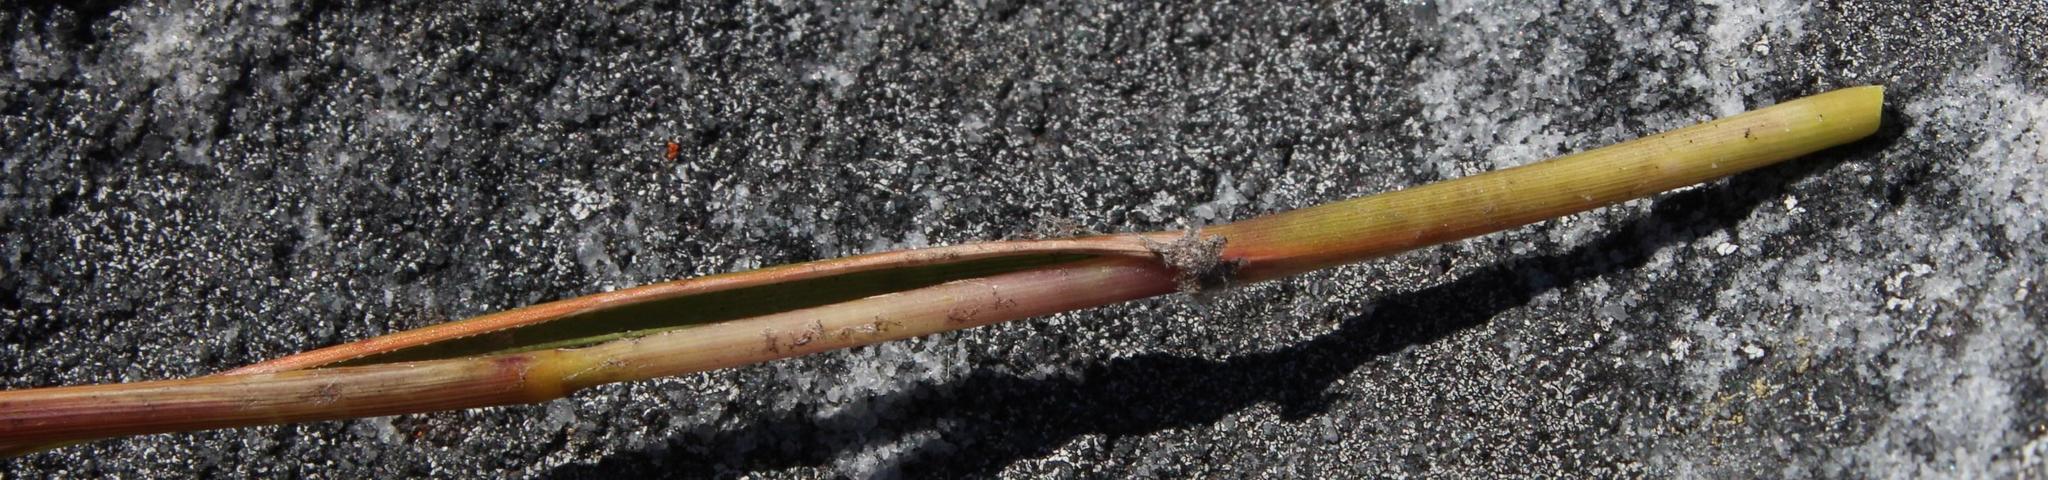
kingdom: Plantae
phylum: Tracheophyta
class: Liliopsida
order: Poales
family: Poaceae
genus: Pseudopentameris
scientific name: Pseudopentameris macrantha
